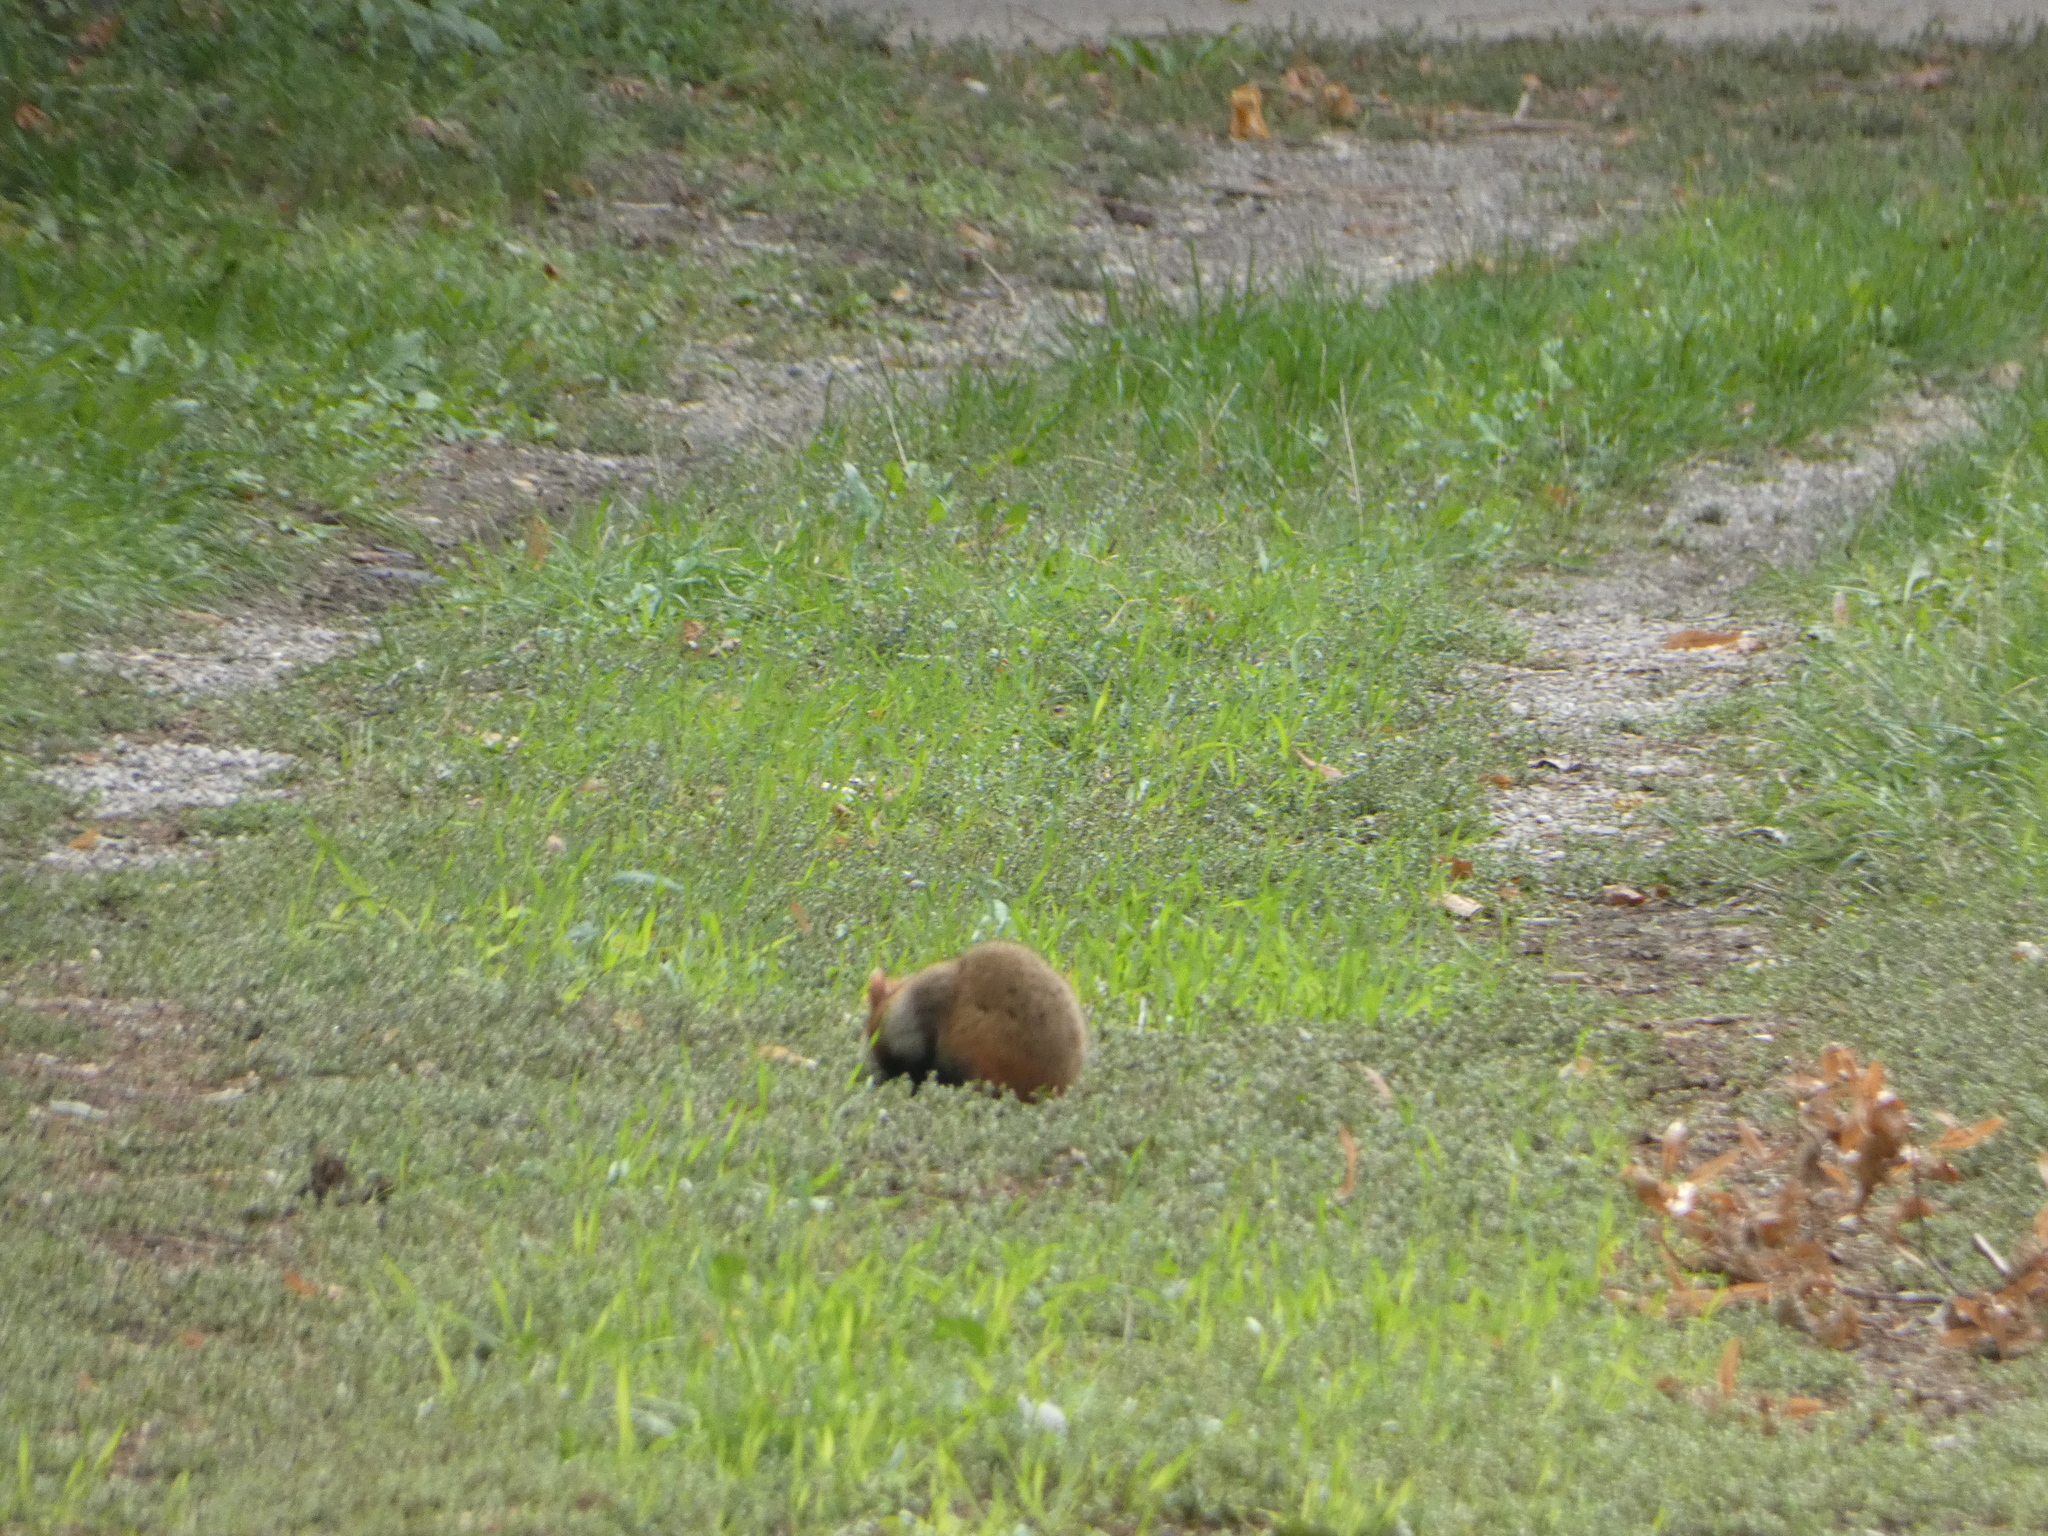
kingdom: Animalia
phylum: Chordata
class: Mammalia
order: Rodentia
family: Cricetidae
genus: Cricetus
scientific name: Cricetus cricetus
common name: Common hamster
